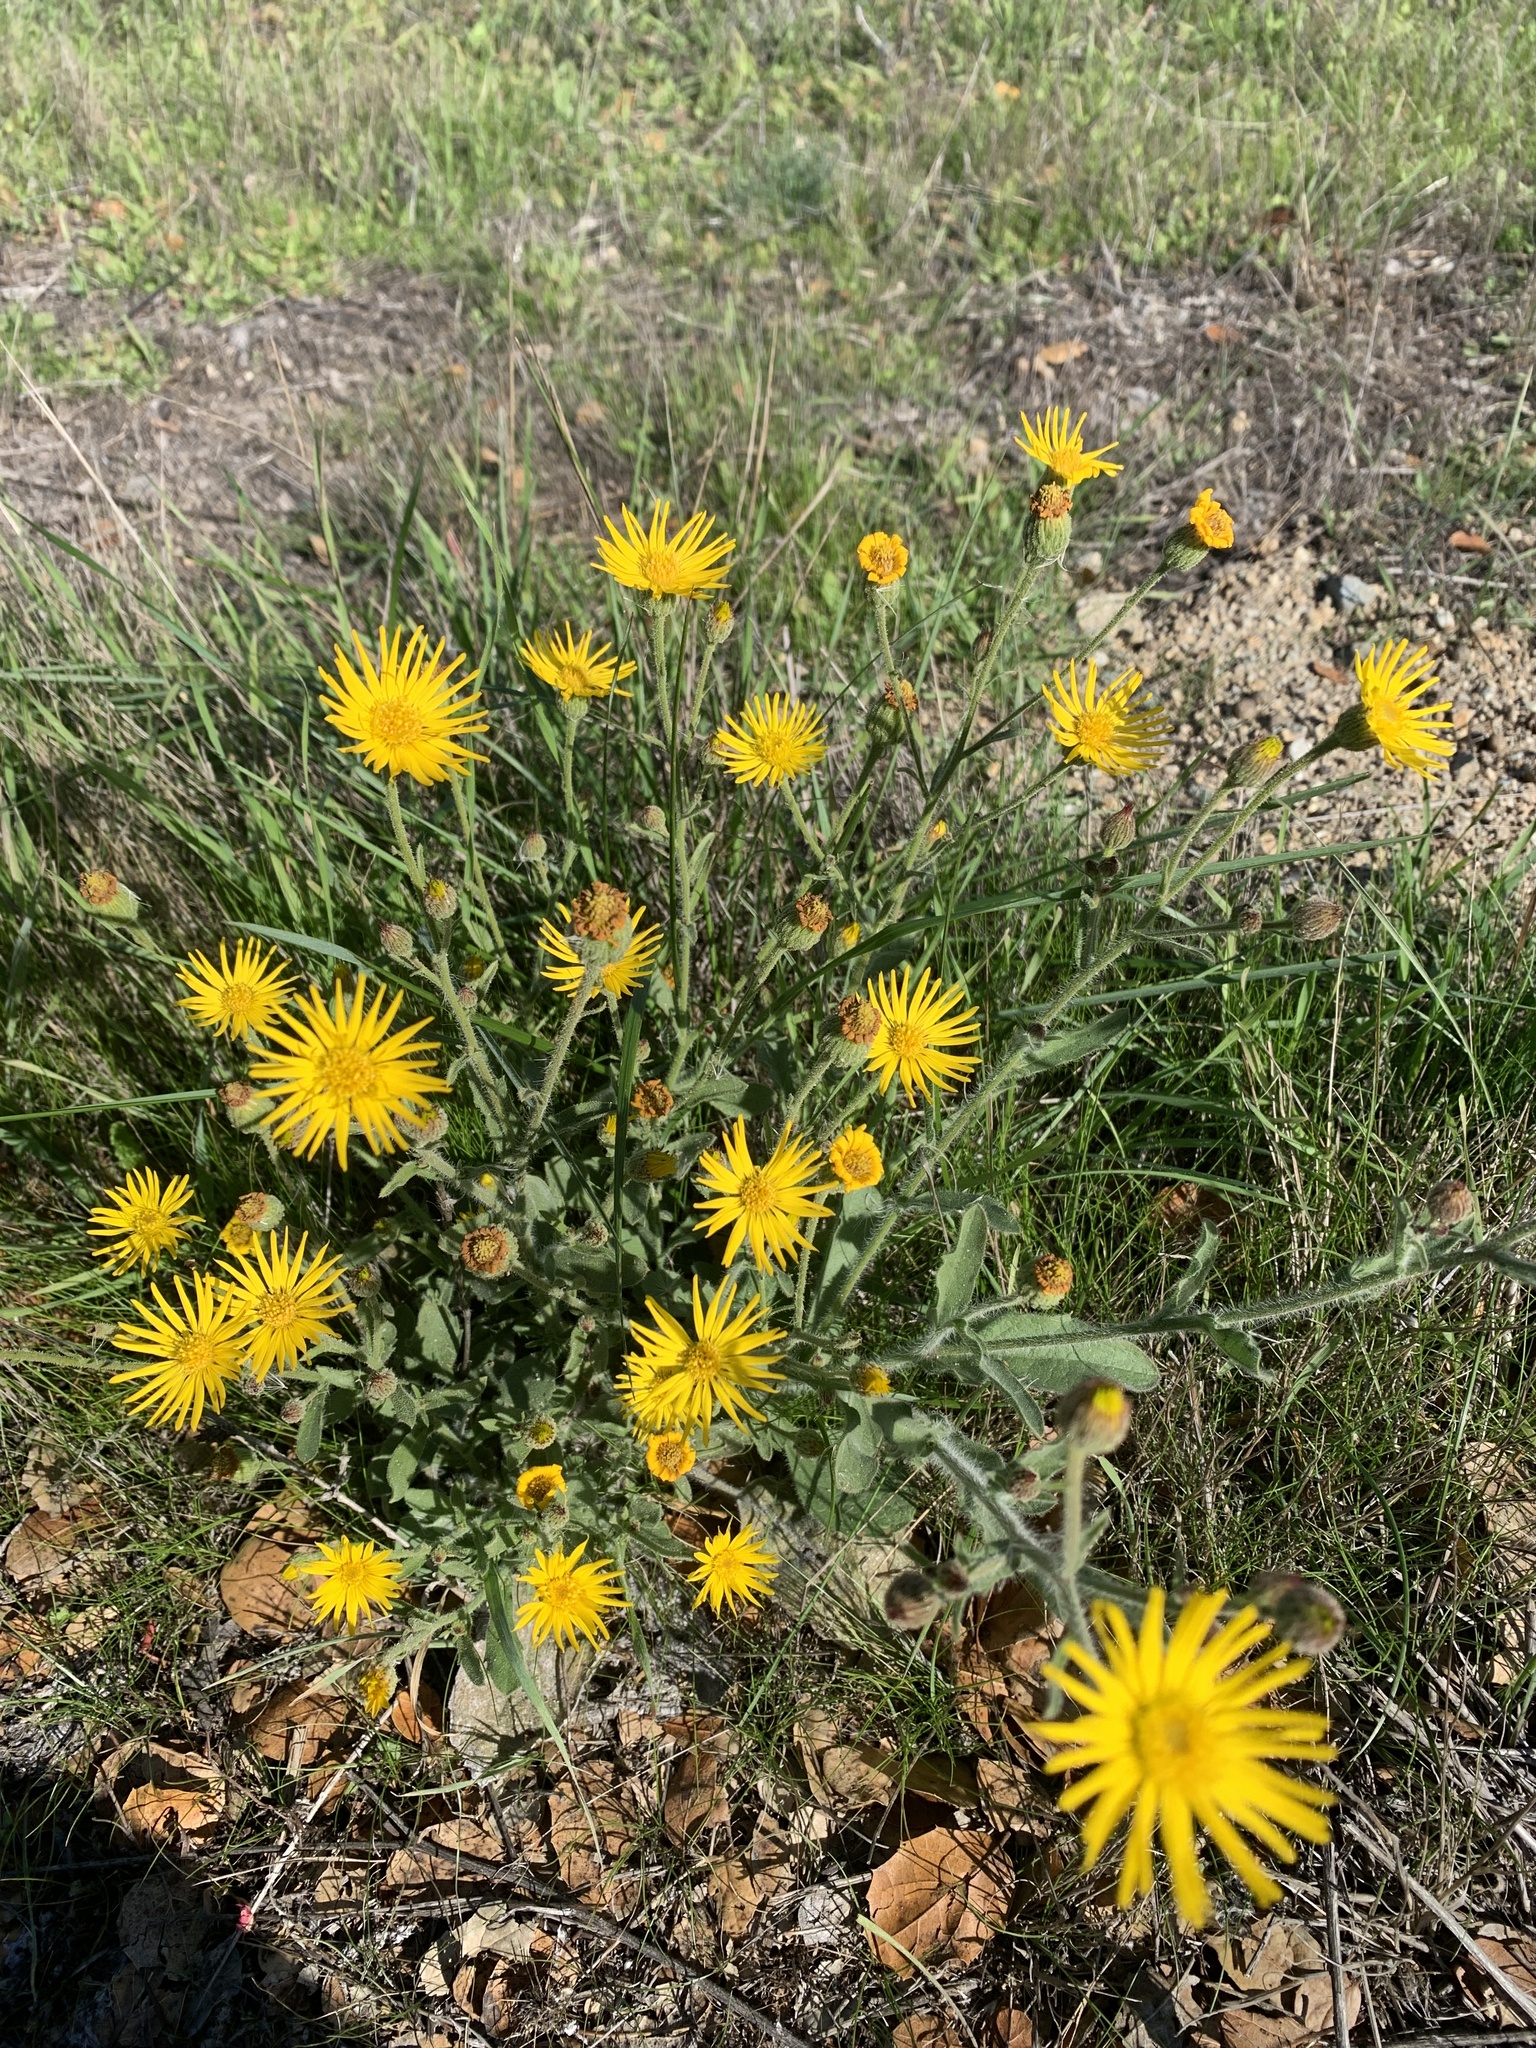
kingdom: Plantae
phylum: Tracheophyta
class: Magnoliopsida
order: Asterales
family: Asteraceae
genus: Heterotheca
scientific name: Heterotheca grandiflora
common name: Telegraphweed
